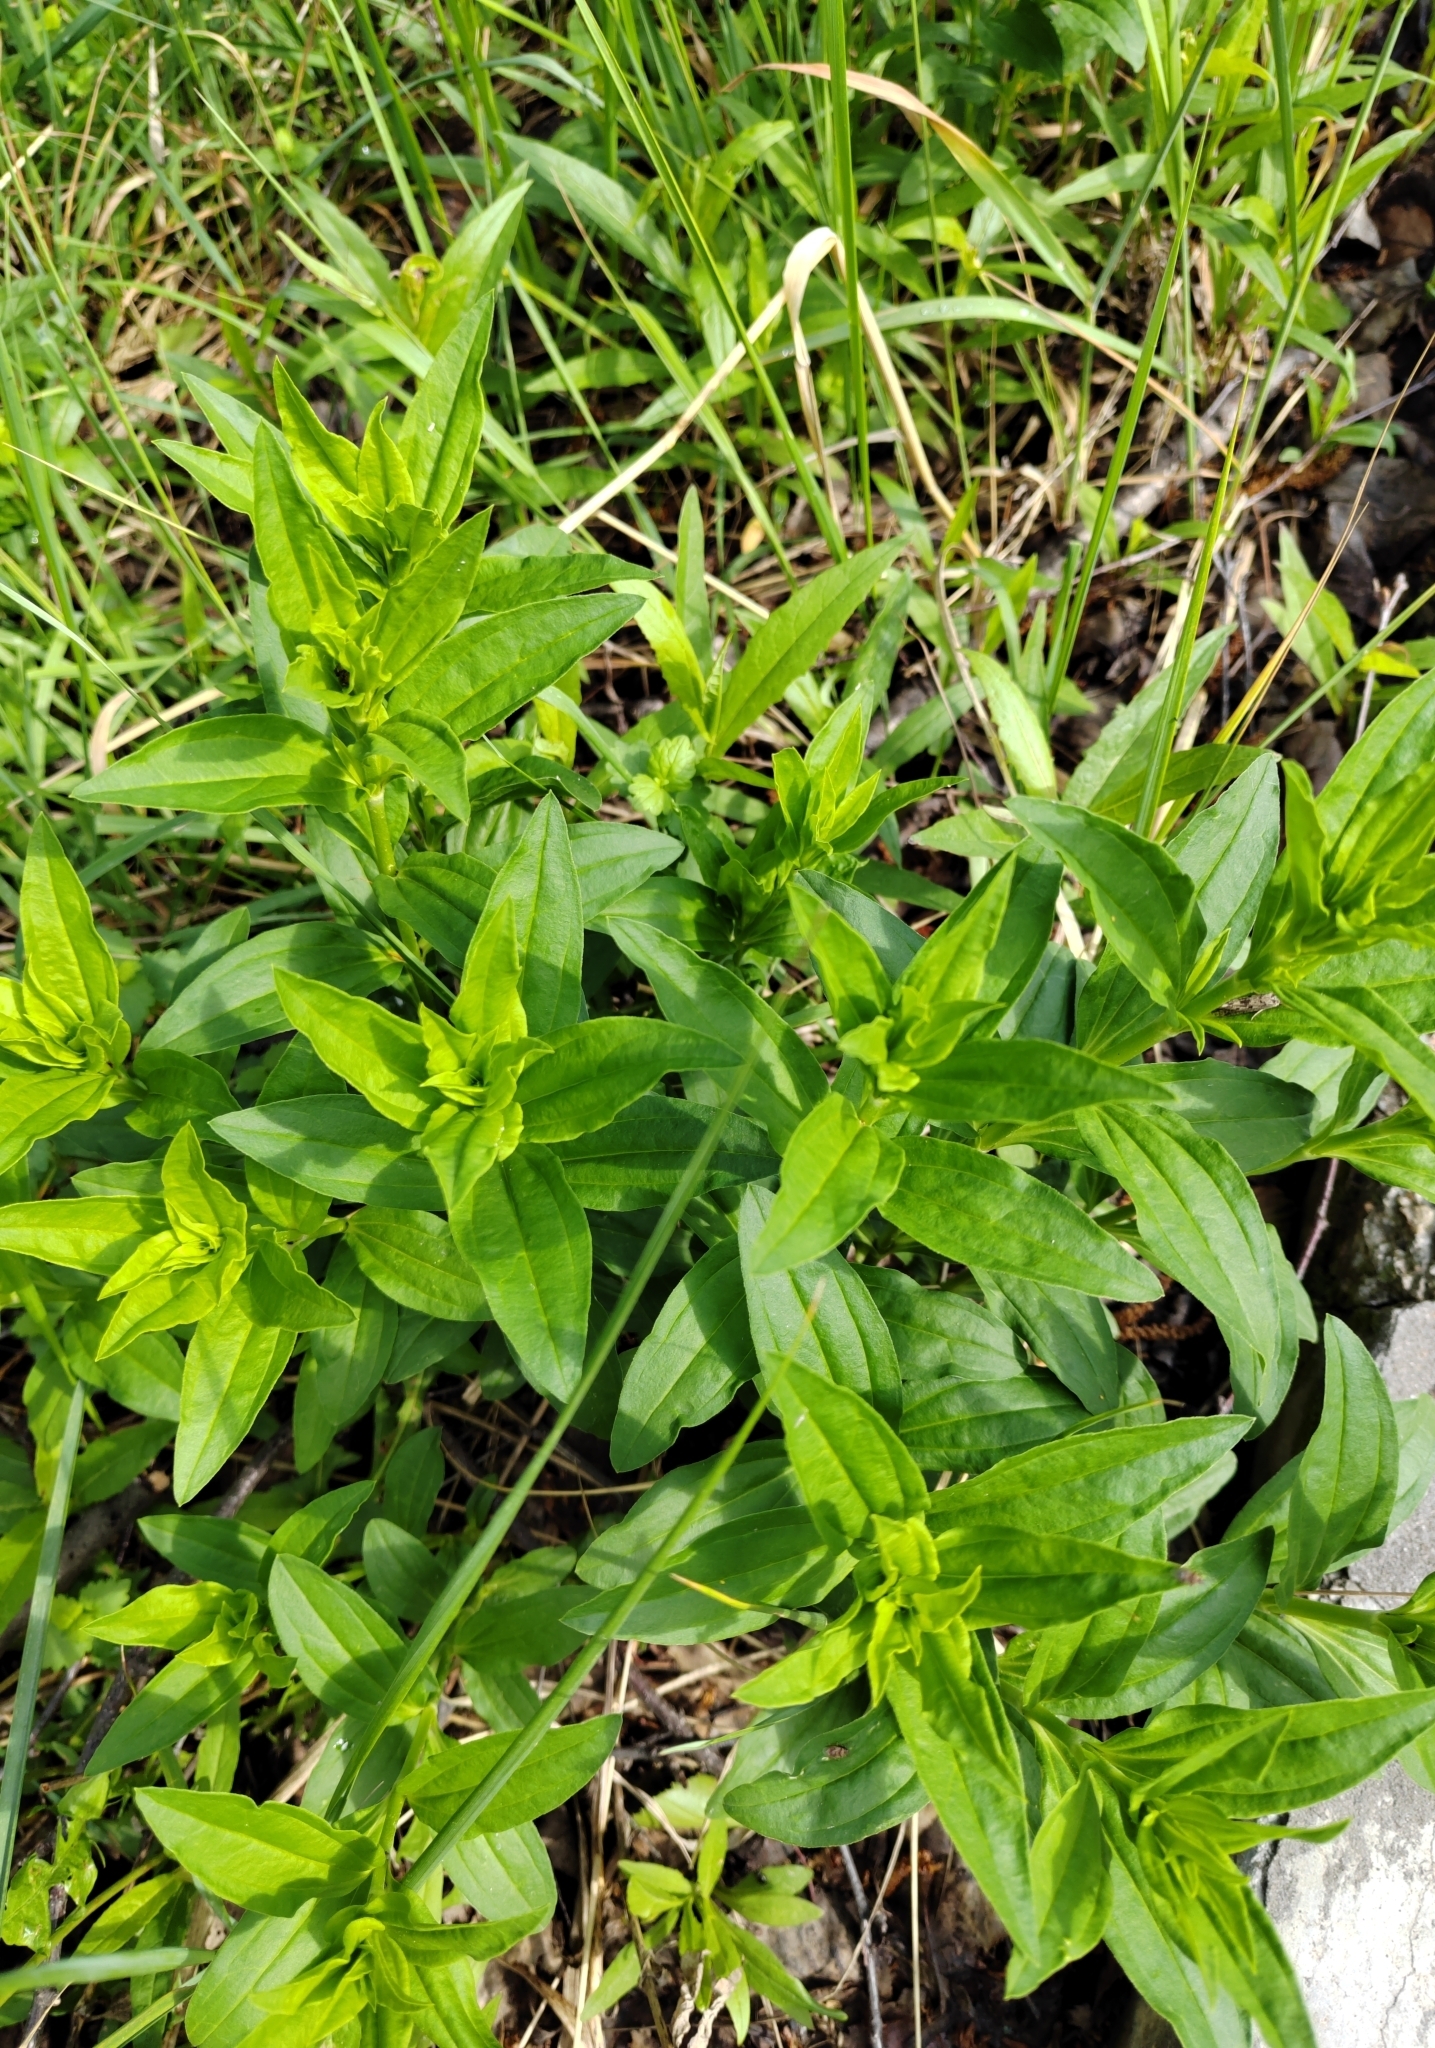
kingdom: Plantae
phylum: Tracheophyta
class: Magnoliopsida
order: Caryophyllales
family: Caryophyllaceae
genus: Saponaria
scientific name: Saponaria officinalis
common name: Soapwort
